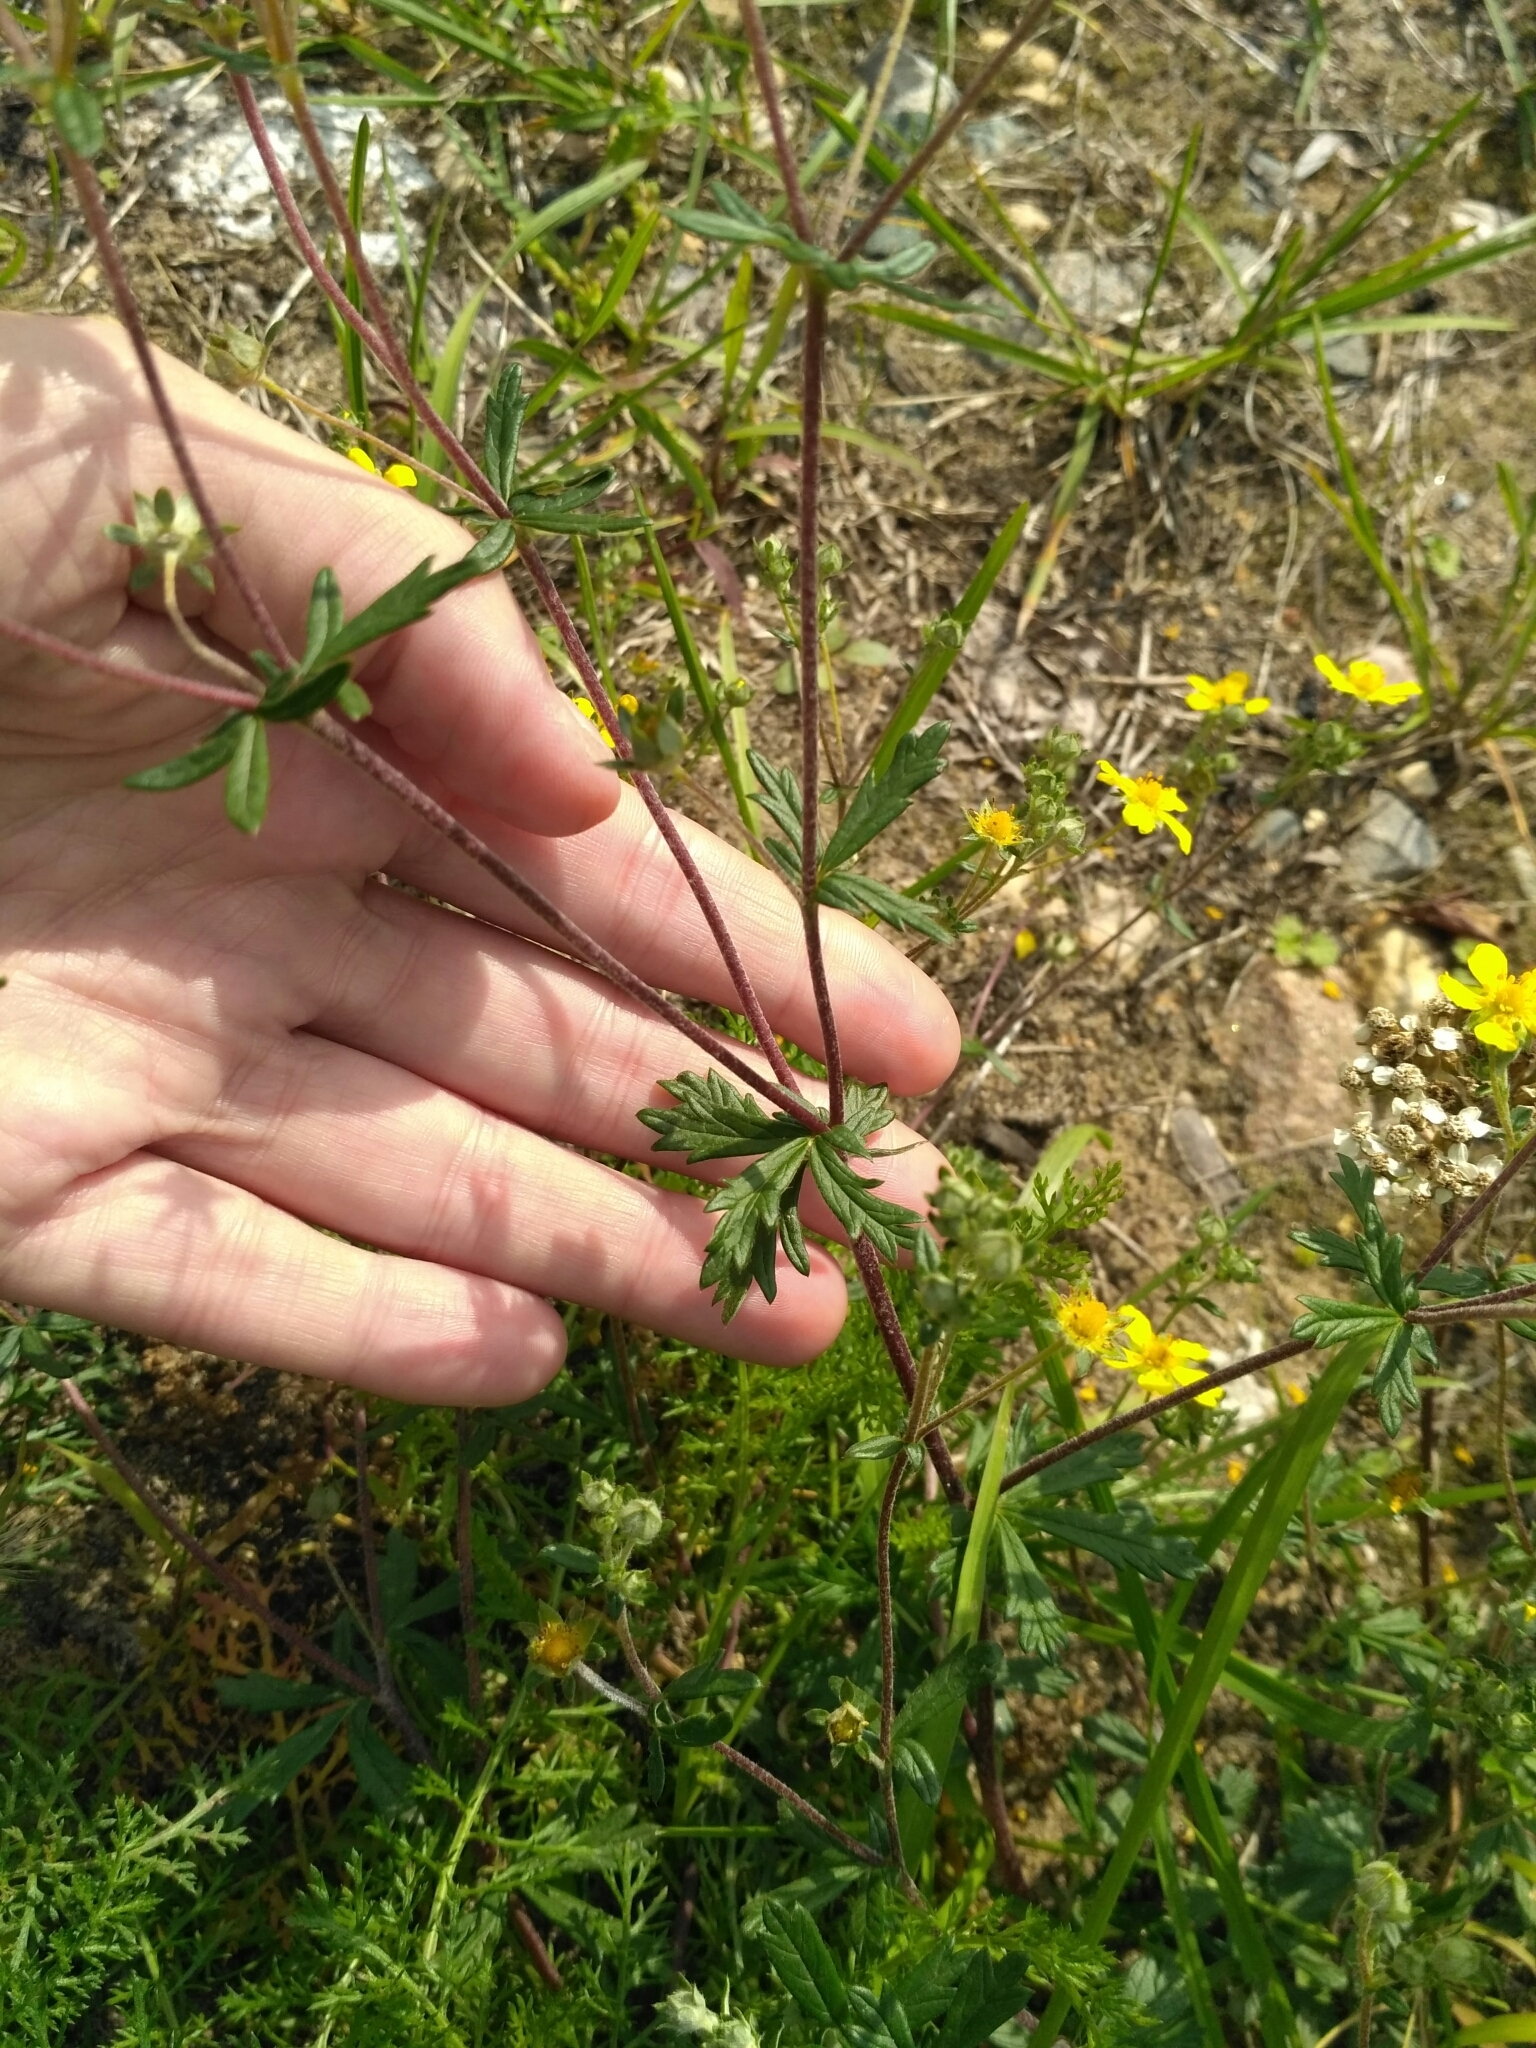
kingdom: Plantae
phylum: Tracheophyta
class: Magnoliopsida
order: Rosales
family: Rosaceae
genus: Potentilla
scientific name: Potentilla argentea
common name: Hoary cinquefoil
